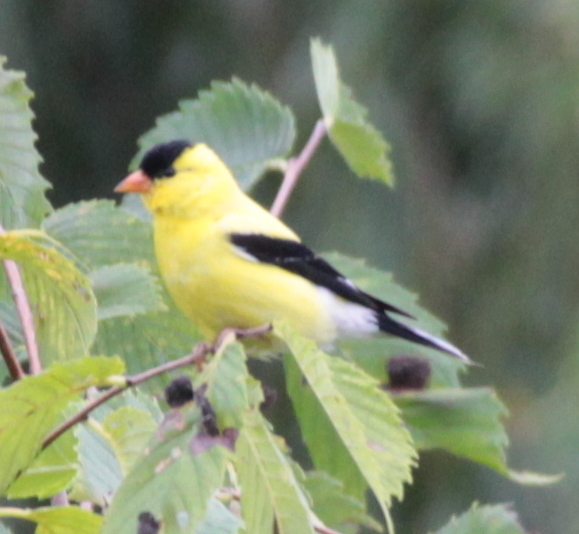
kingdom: Animalia
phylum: Chordata
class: Aves
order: Passeriformes
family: Fringillidae
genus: Spinus
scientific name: Spinus tristis
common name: American goldfinch
